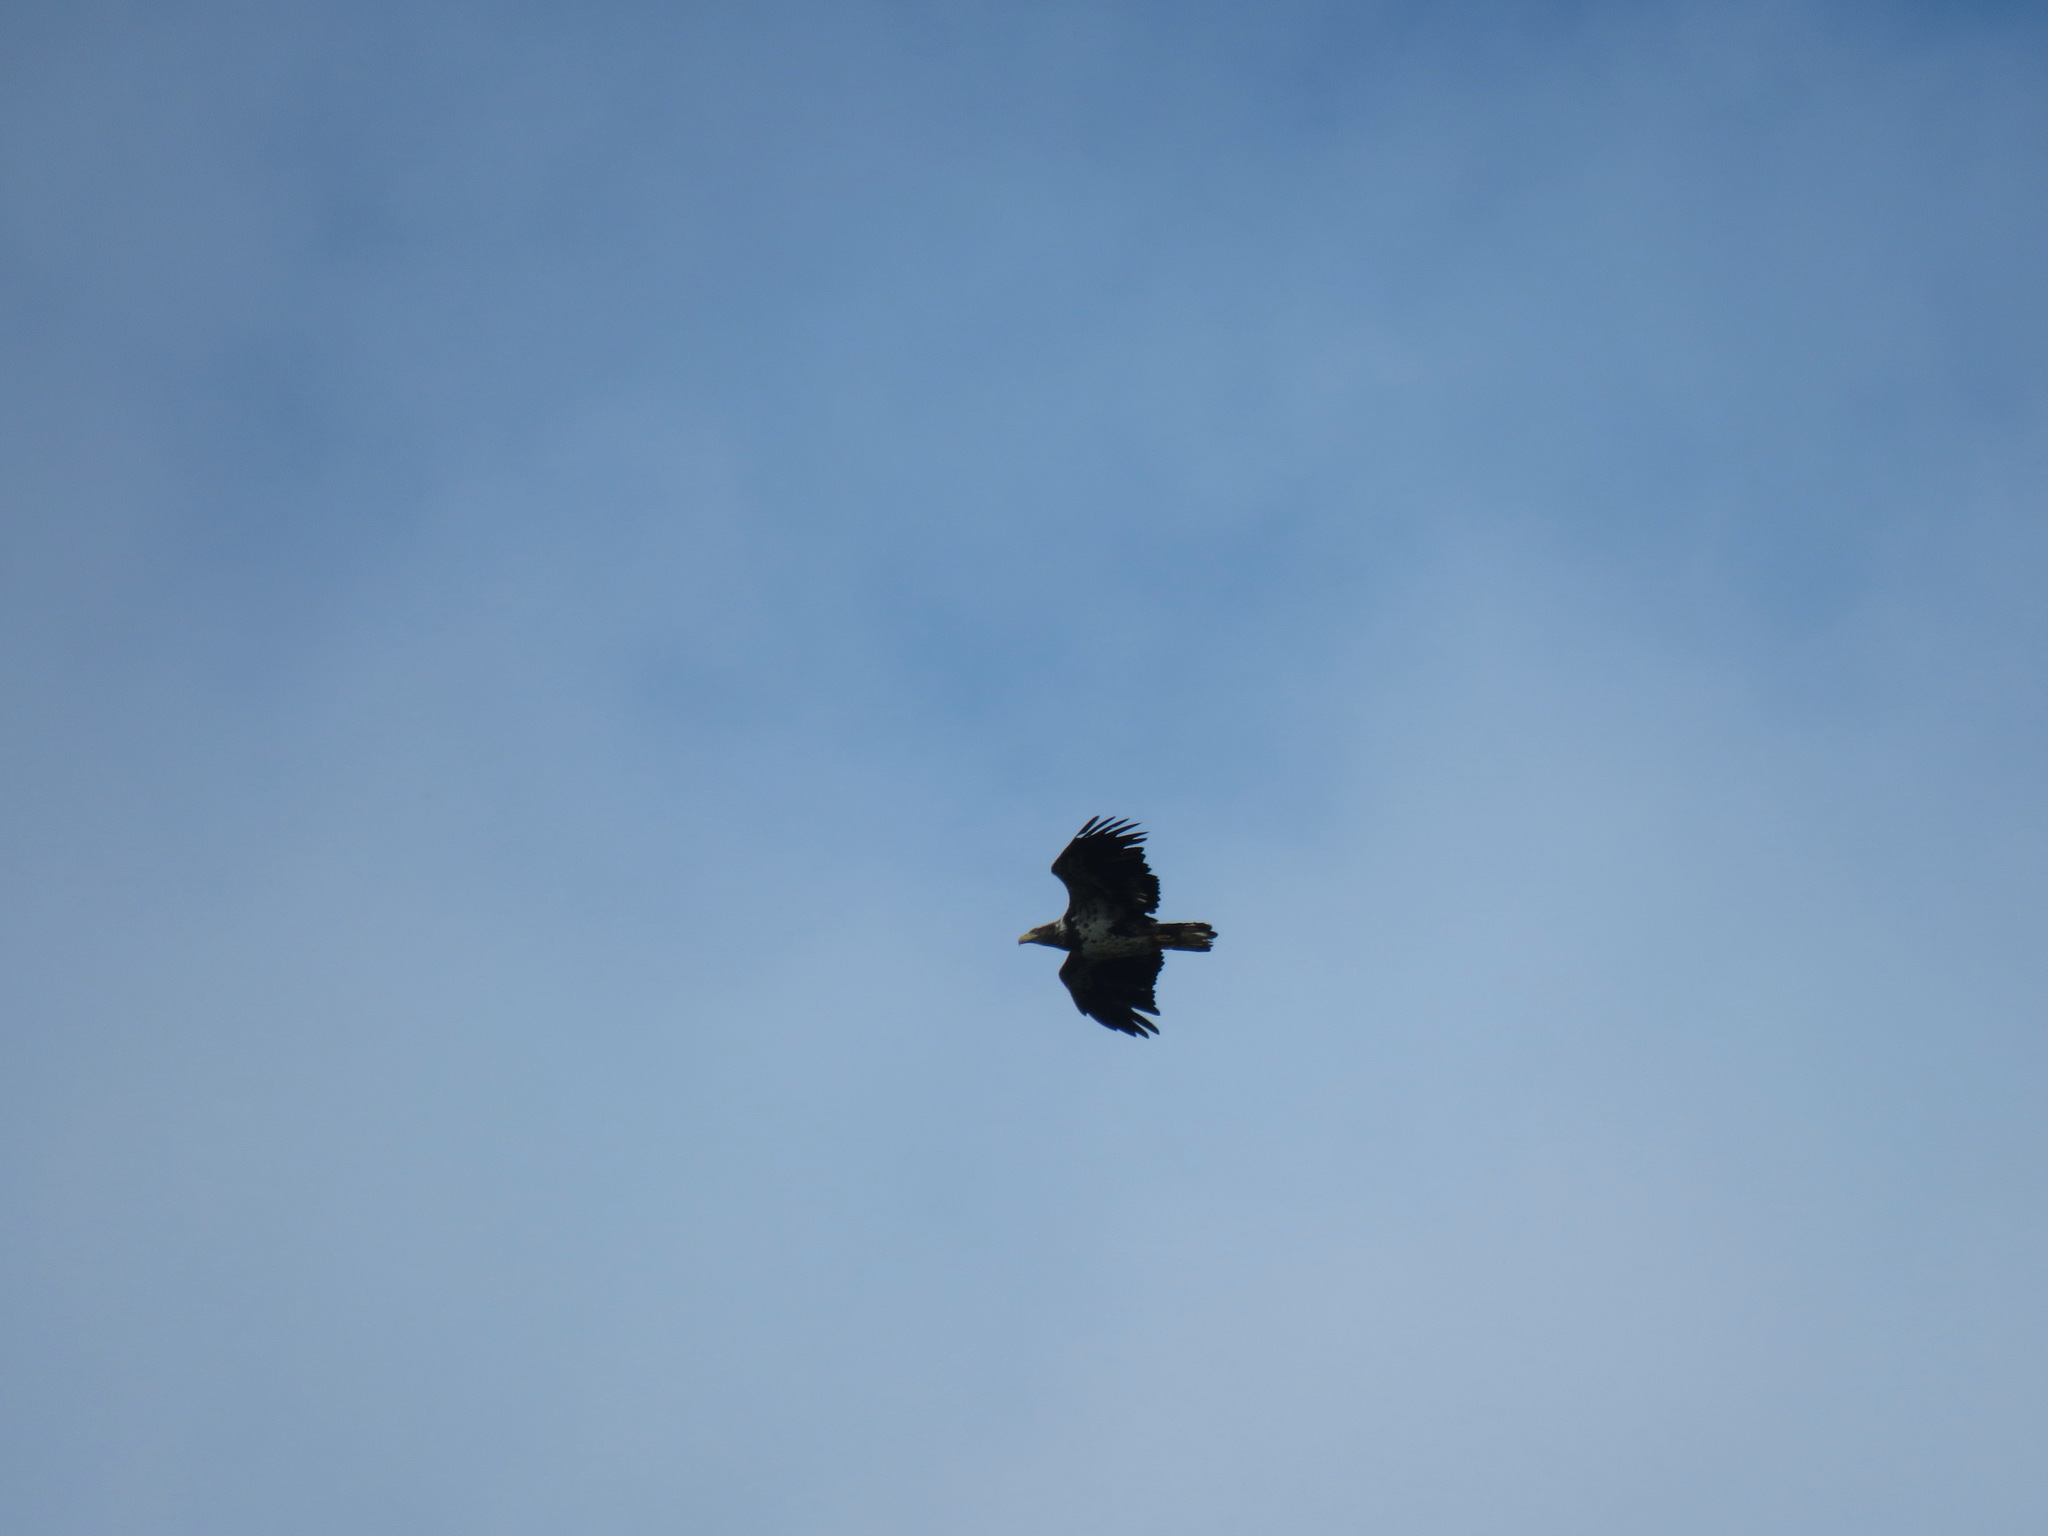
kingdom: Animalia
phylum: Chordata
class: Aves
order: Accipitriformes
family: Accipitridae
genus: Haliaeetus
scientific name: Haliaeetus leucocephalus
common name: Bald eagle
